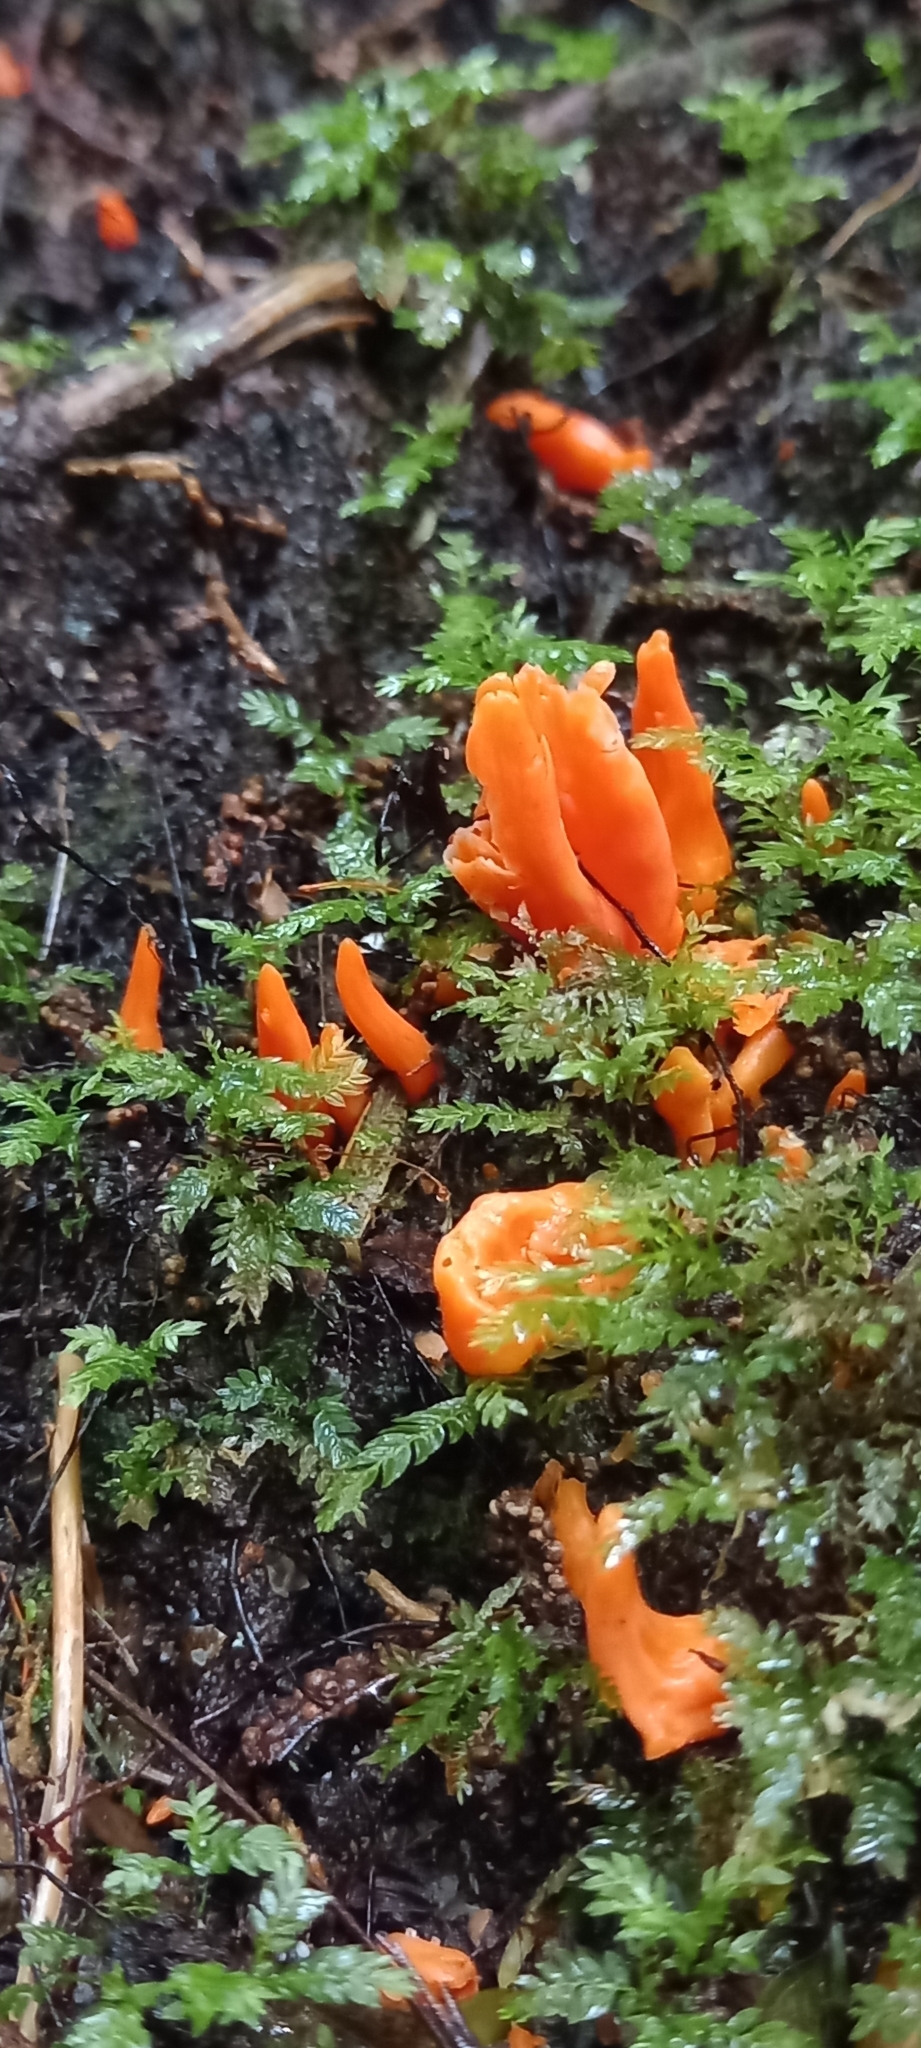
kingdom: Fungi
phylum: Basidiomycota
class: Agaricomycetes
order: Agaricales
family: Clavariaceae
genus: Clavulinopsis
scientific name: Clavulinopsis sulcata
